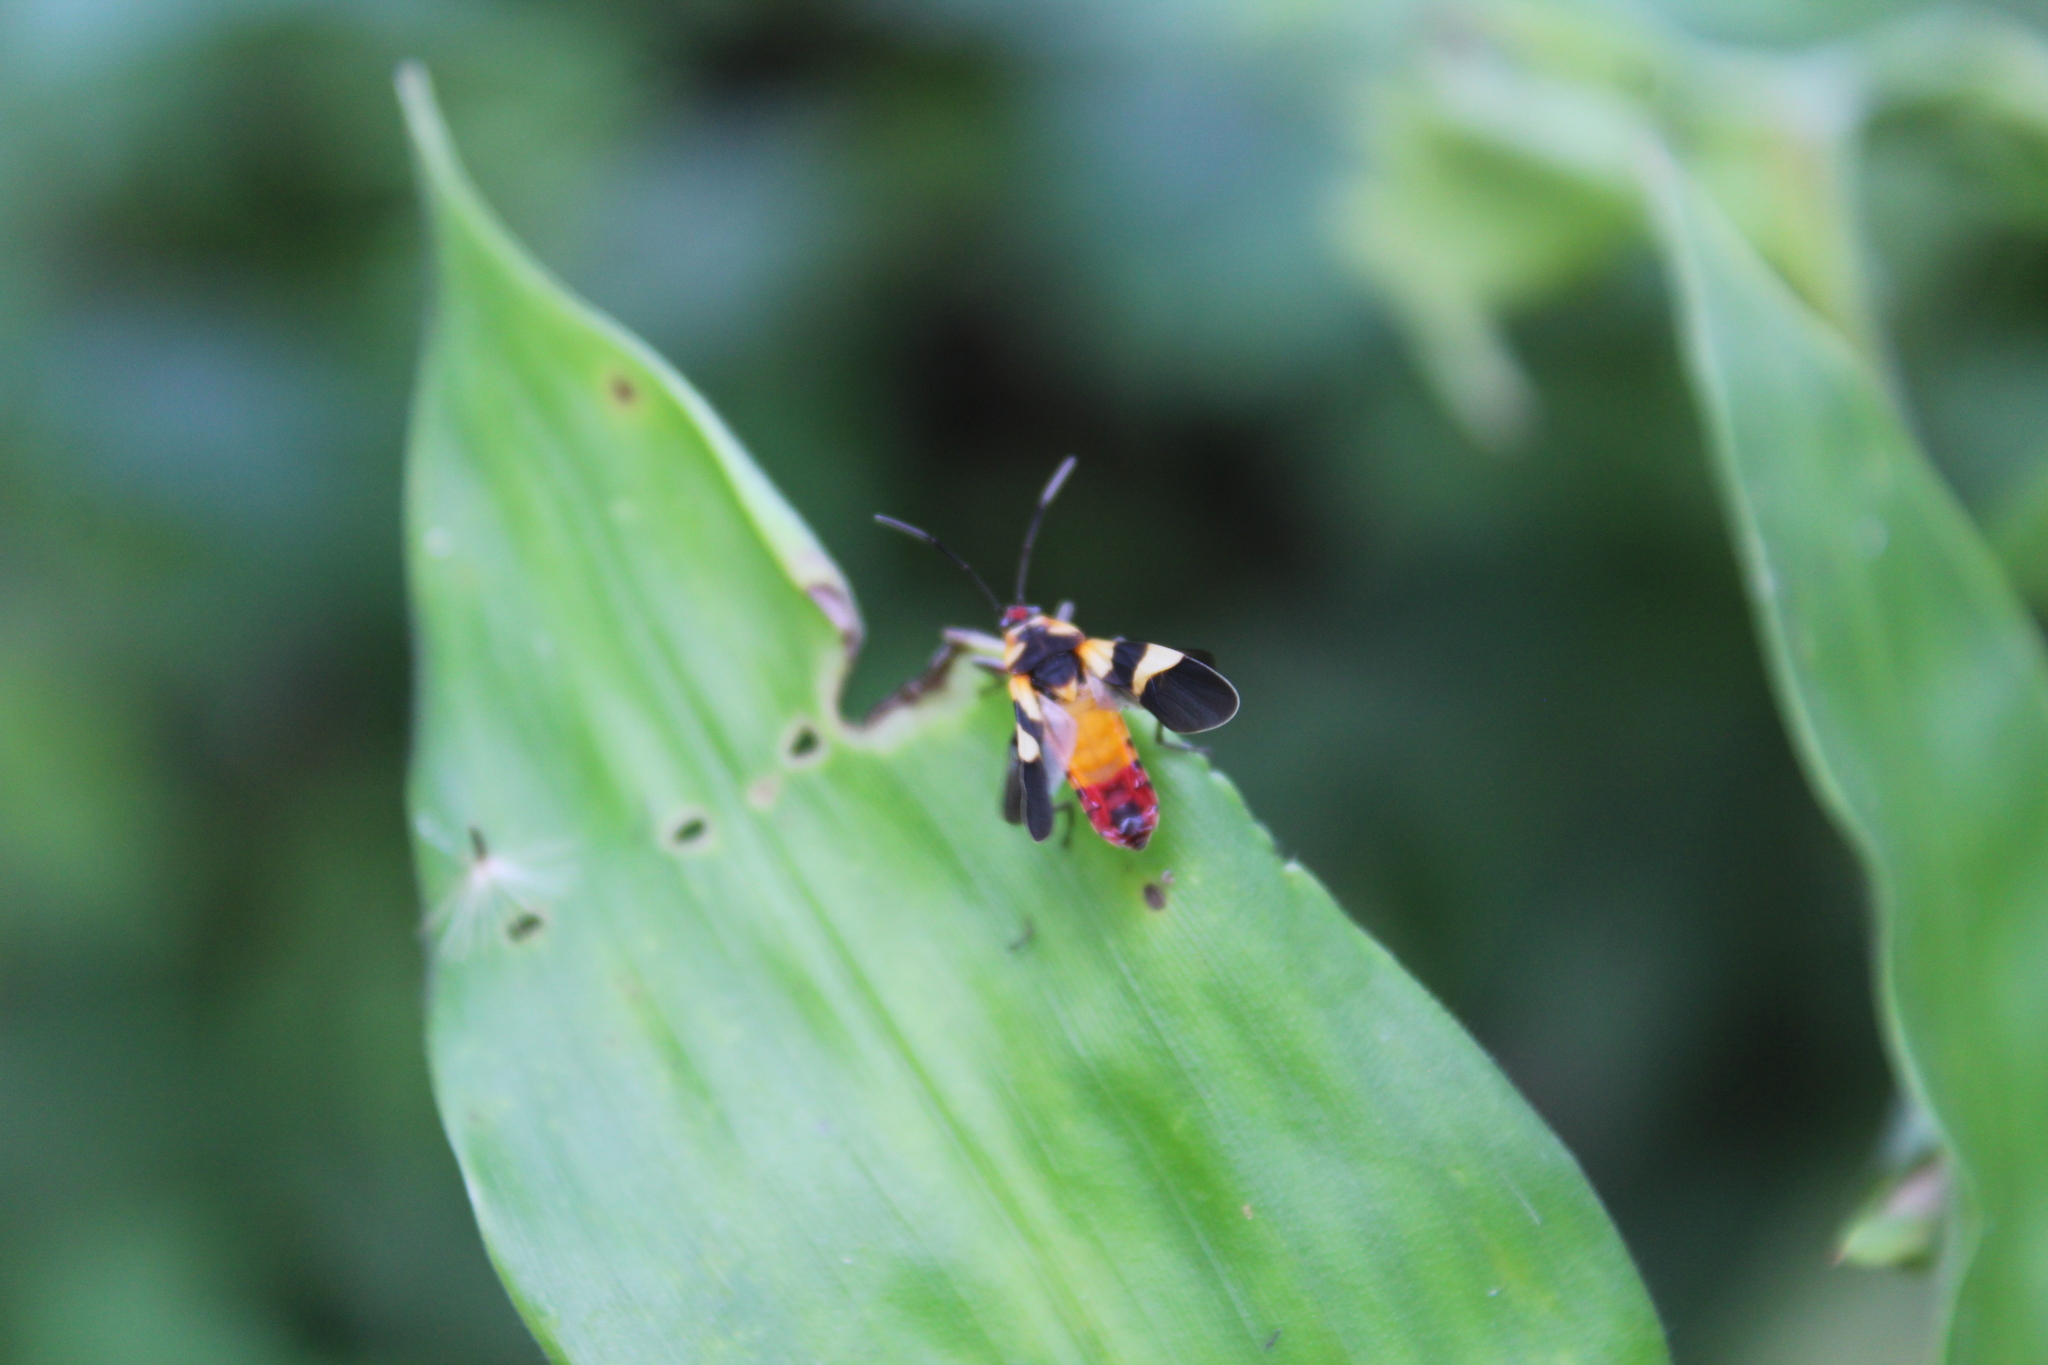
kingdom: Animalia
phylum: Arthropoda
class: Insecta
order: Hemiptera
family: Lygaeidae
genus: Oncopeltus
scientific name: Oncopeltus cingulifer
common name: Lygaeid bug
